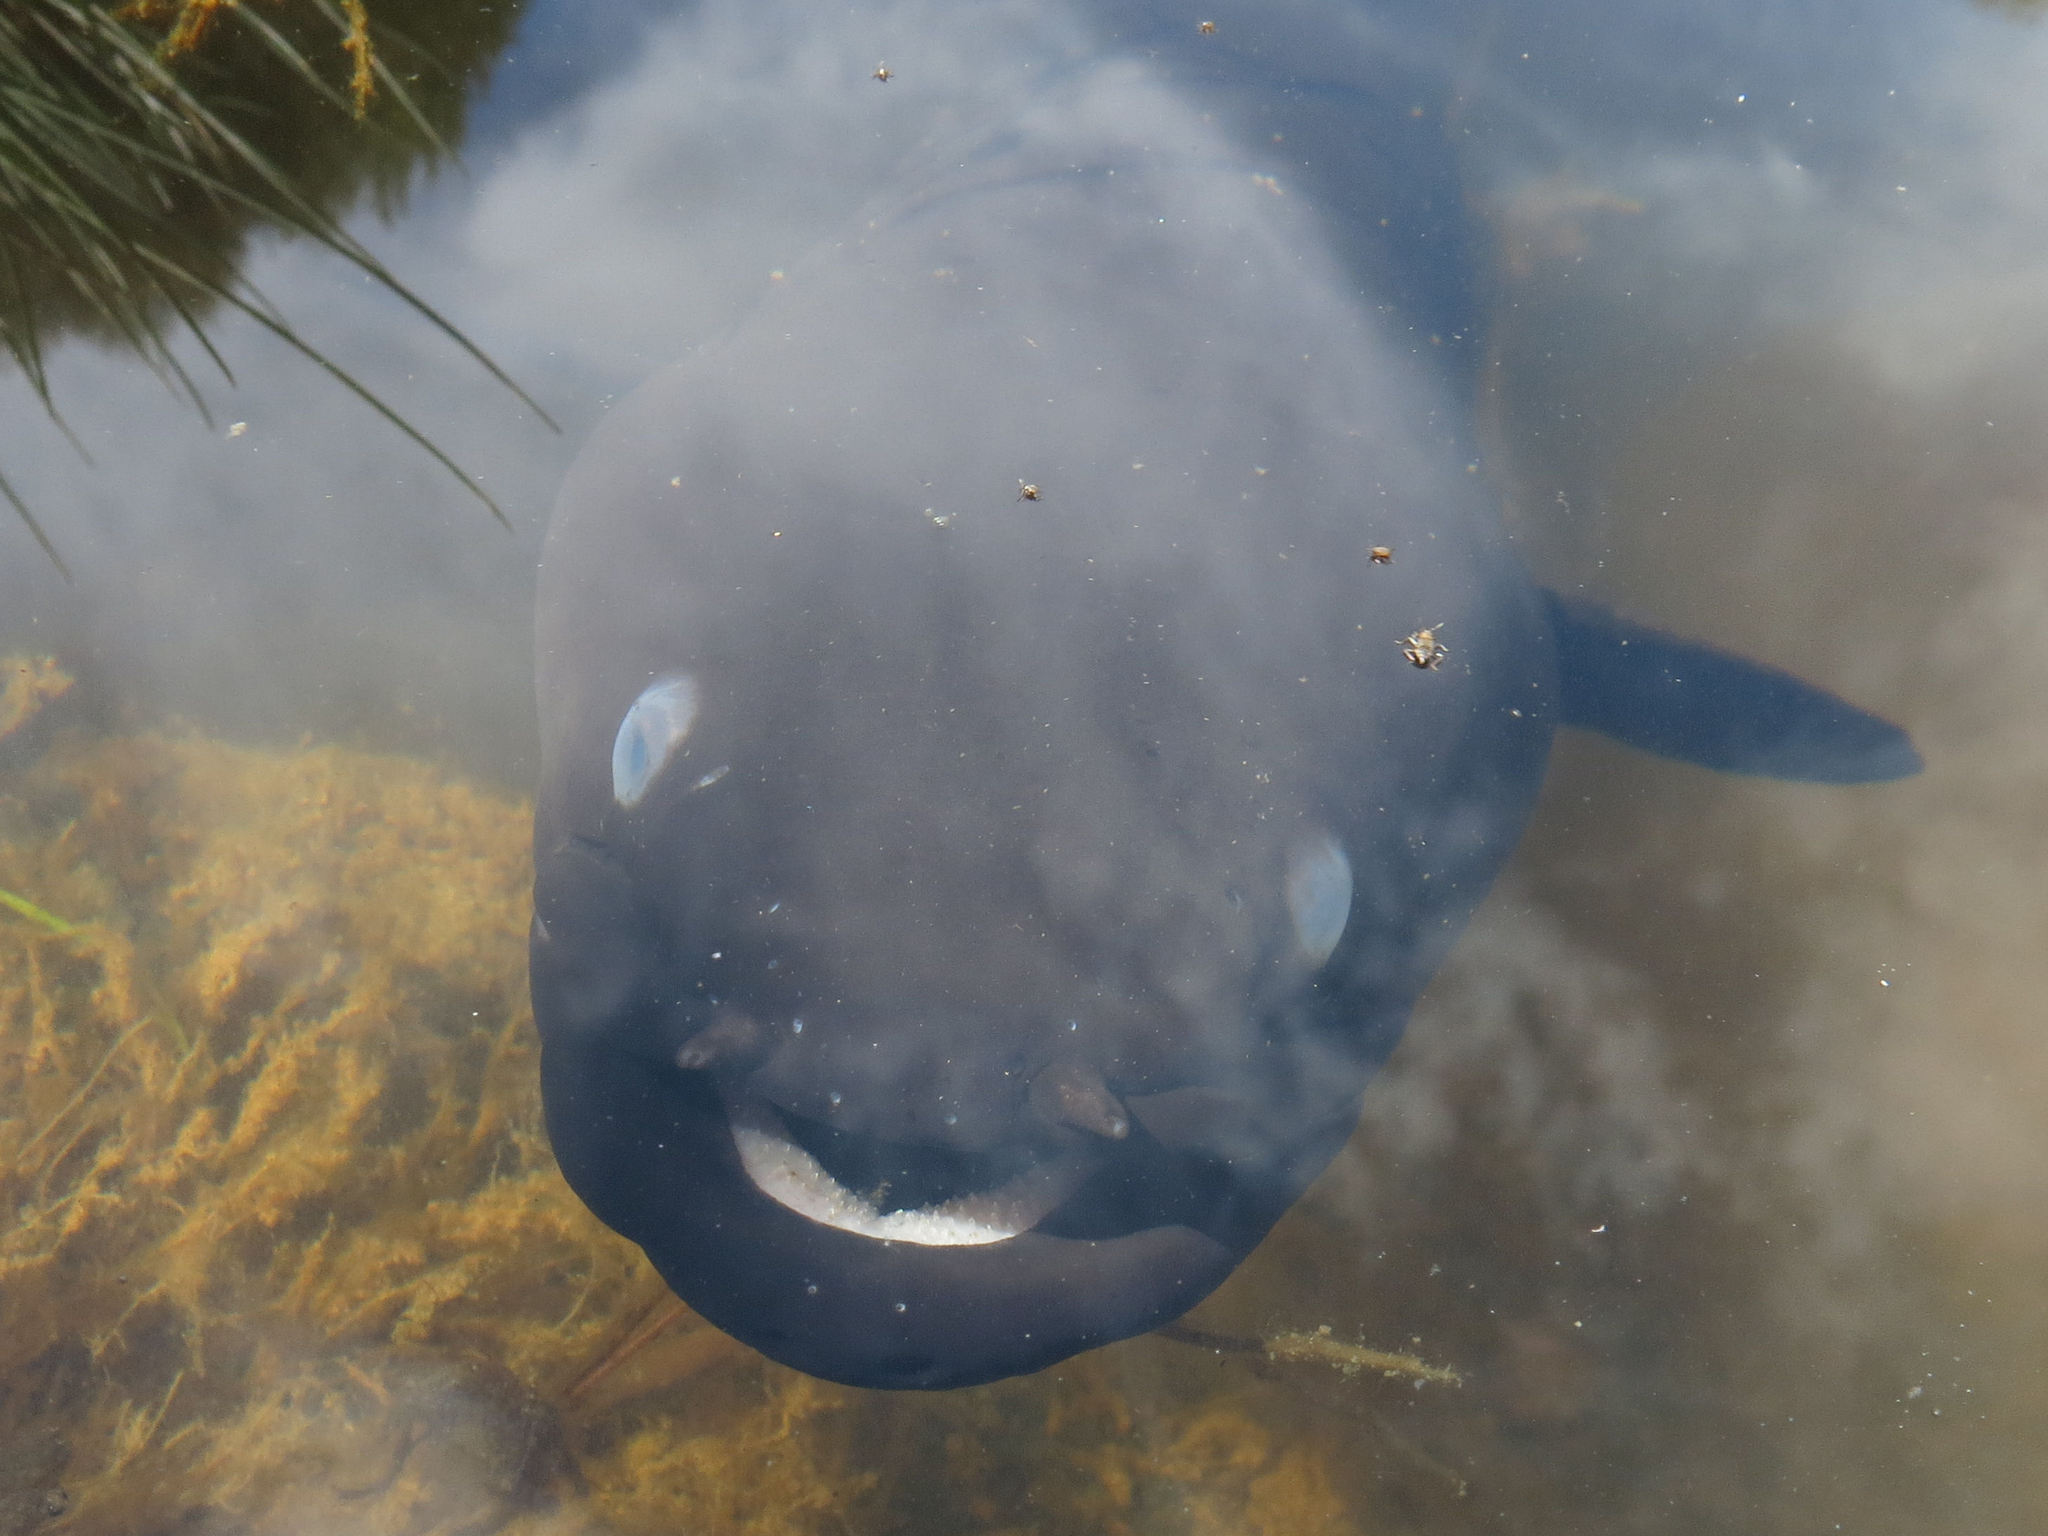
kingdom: Animalia
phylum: Chordata
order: Anguilliformes
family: Anguillidae
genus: Anguilla
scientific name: Anguilla dieffenbachii
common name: New zealand longfin eel
